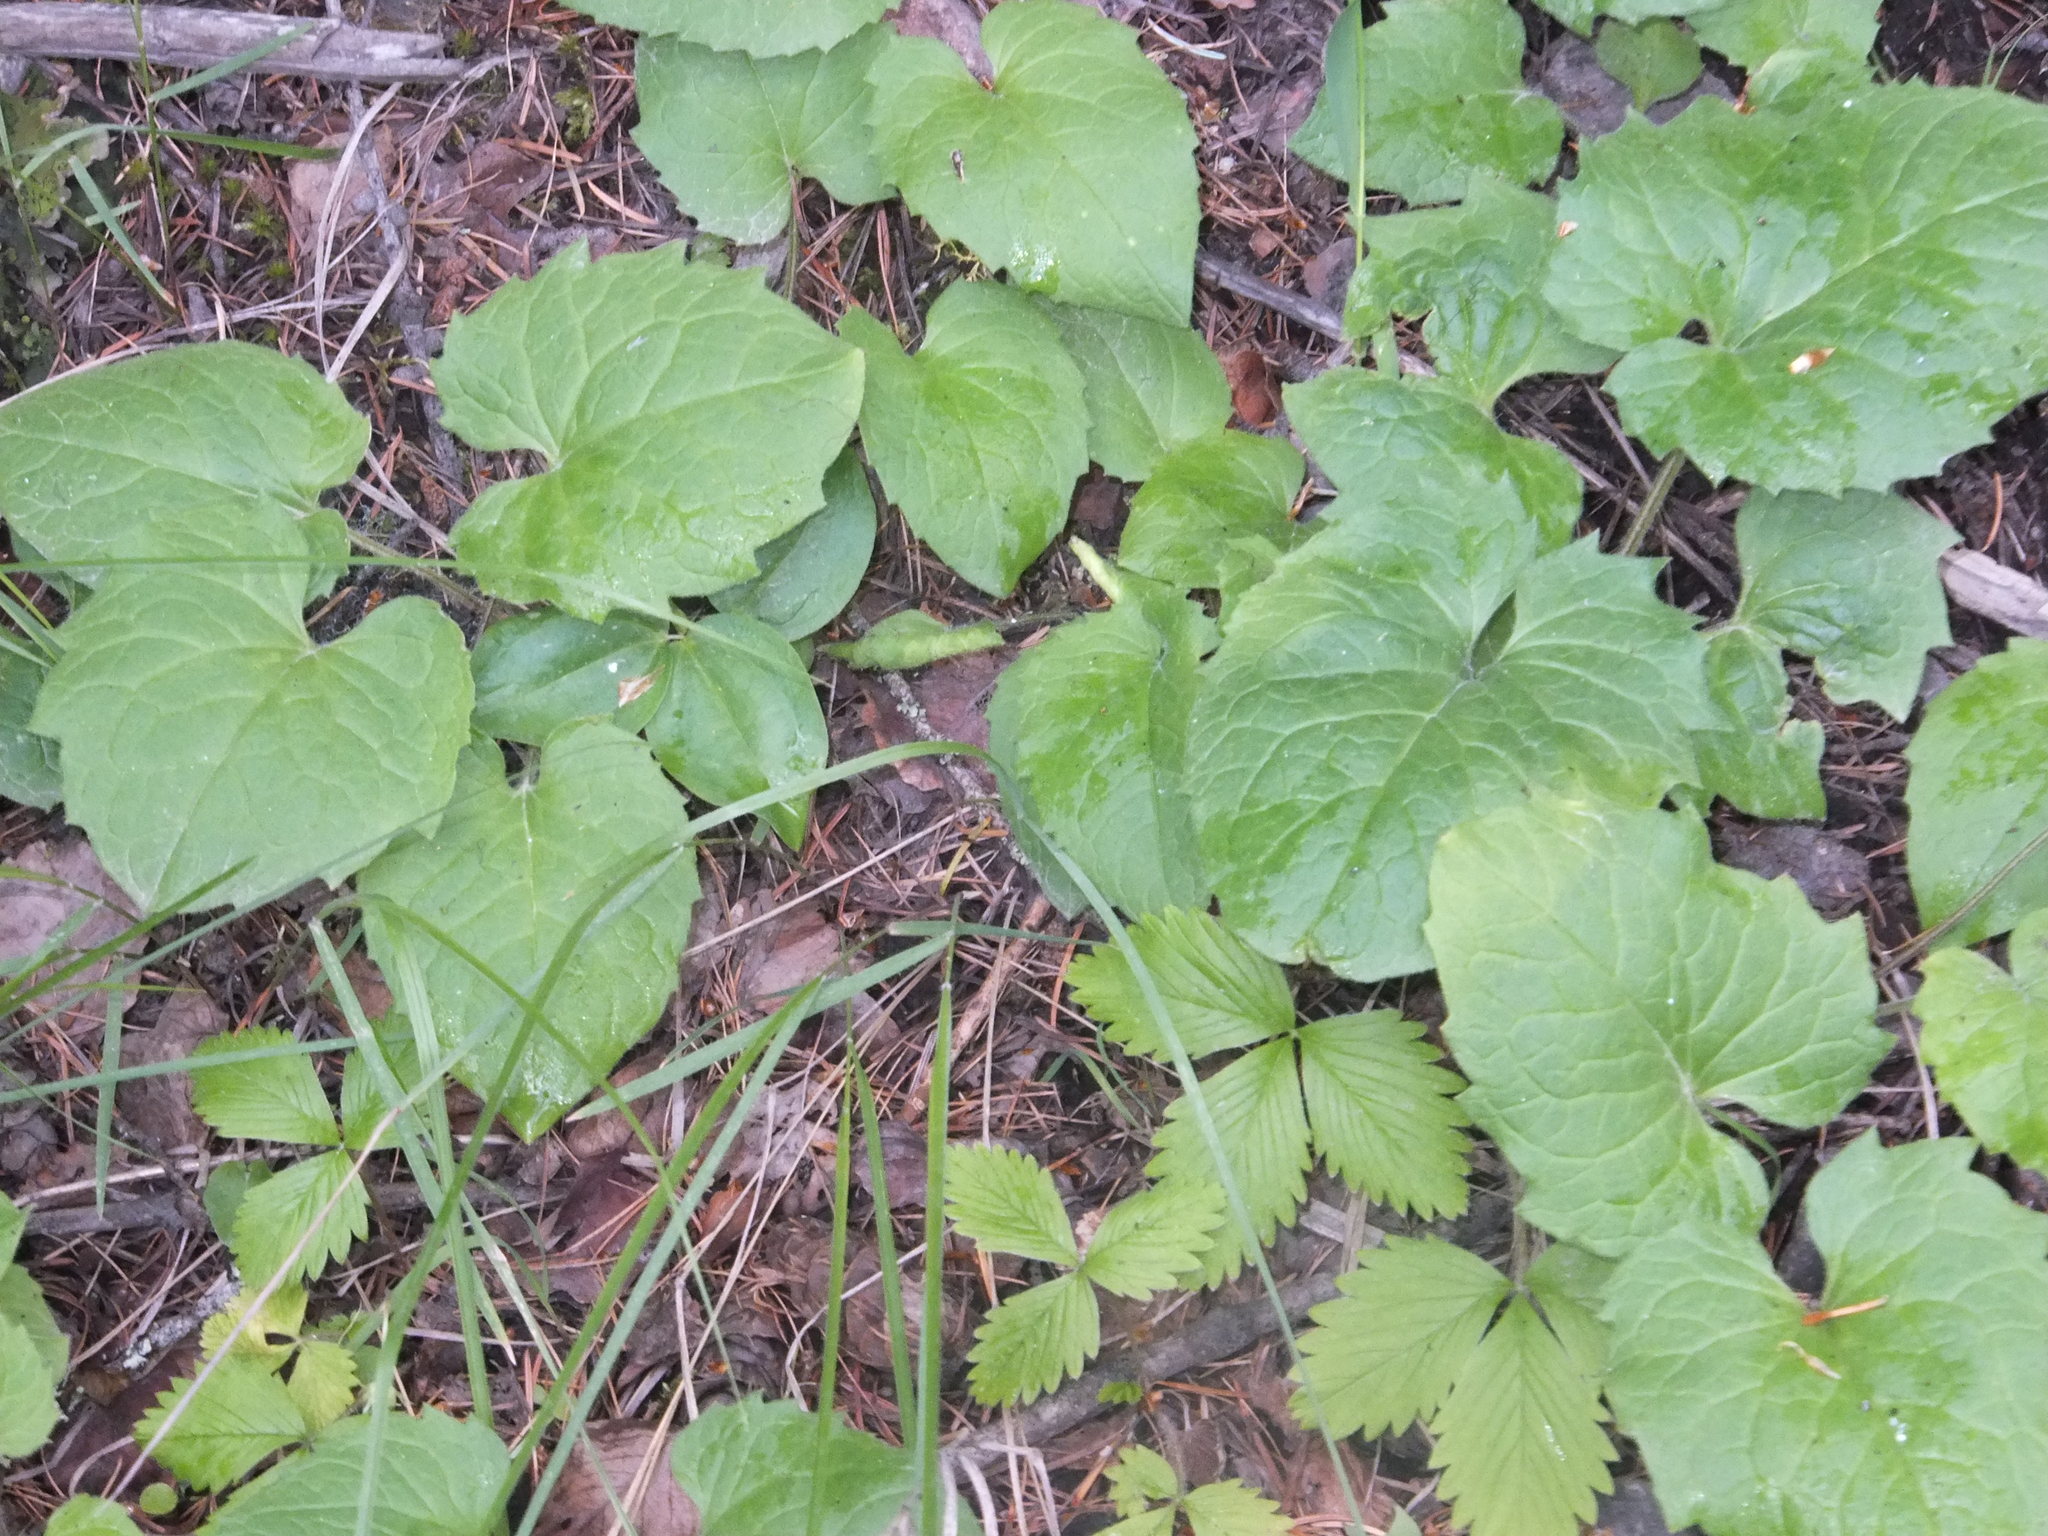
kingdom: Plantae
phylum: Tracheophyta
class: Magnoliopsida
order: Asterales
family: Asteraceae
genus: Arnica
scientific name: Arnica cordifolia
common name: Heart-leaf arnica
